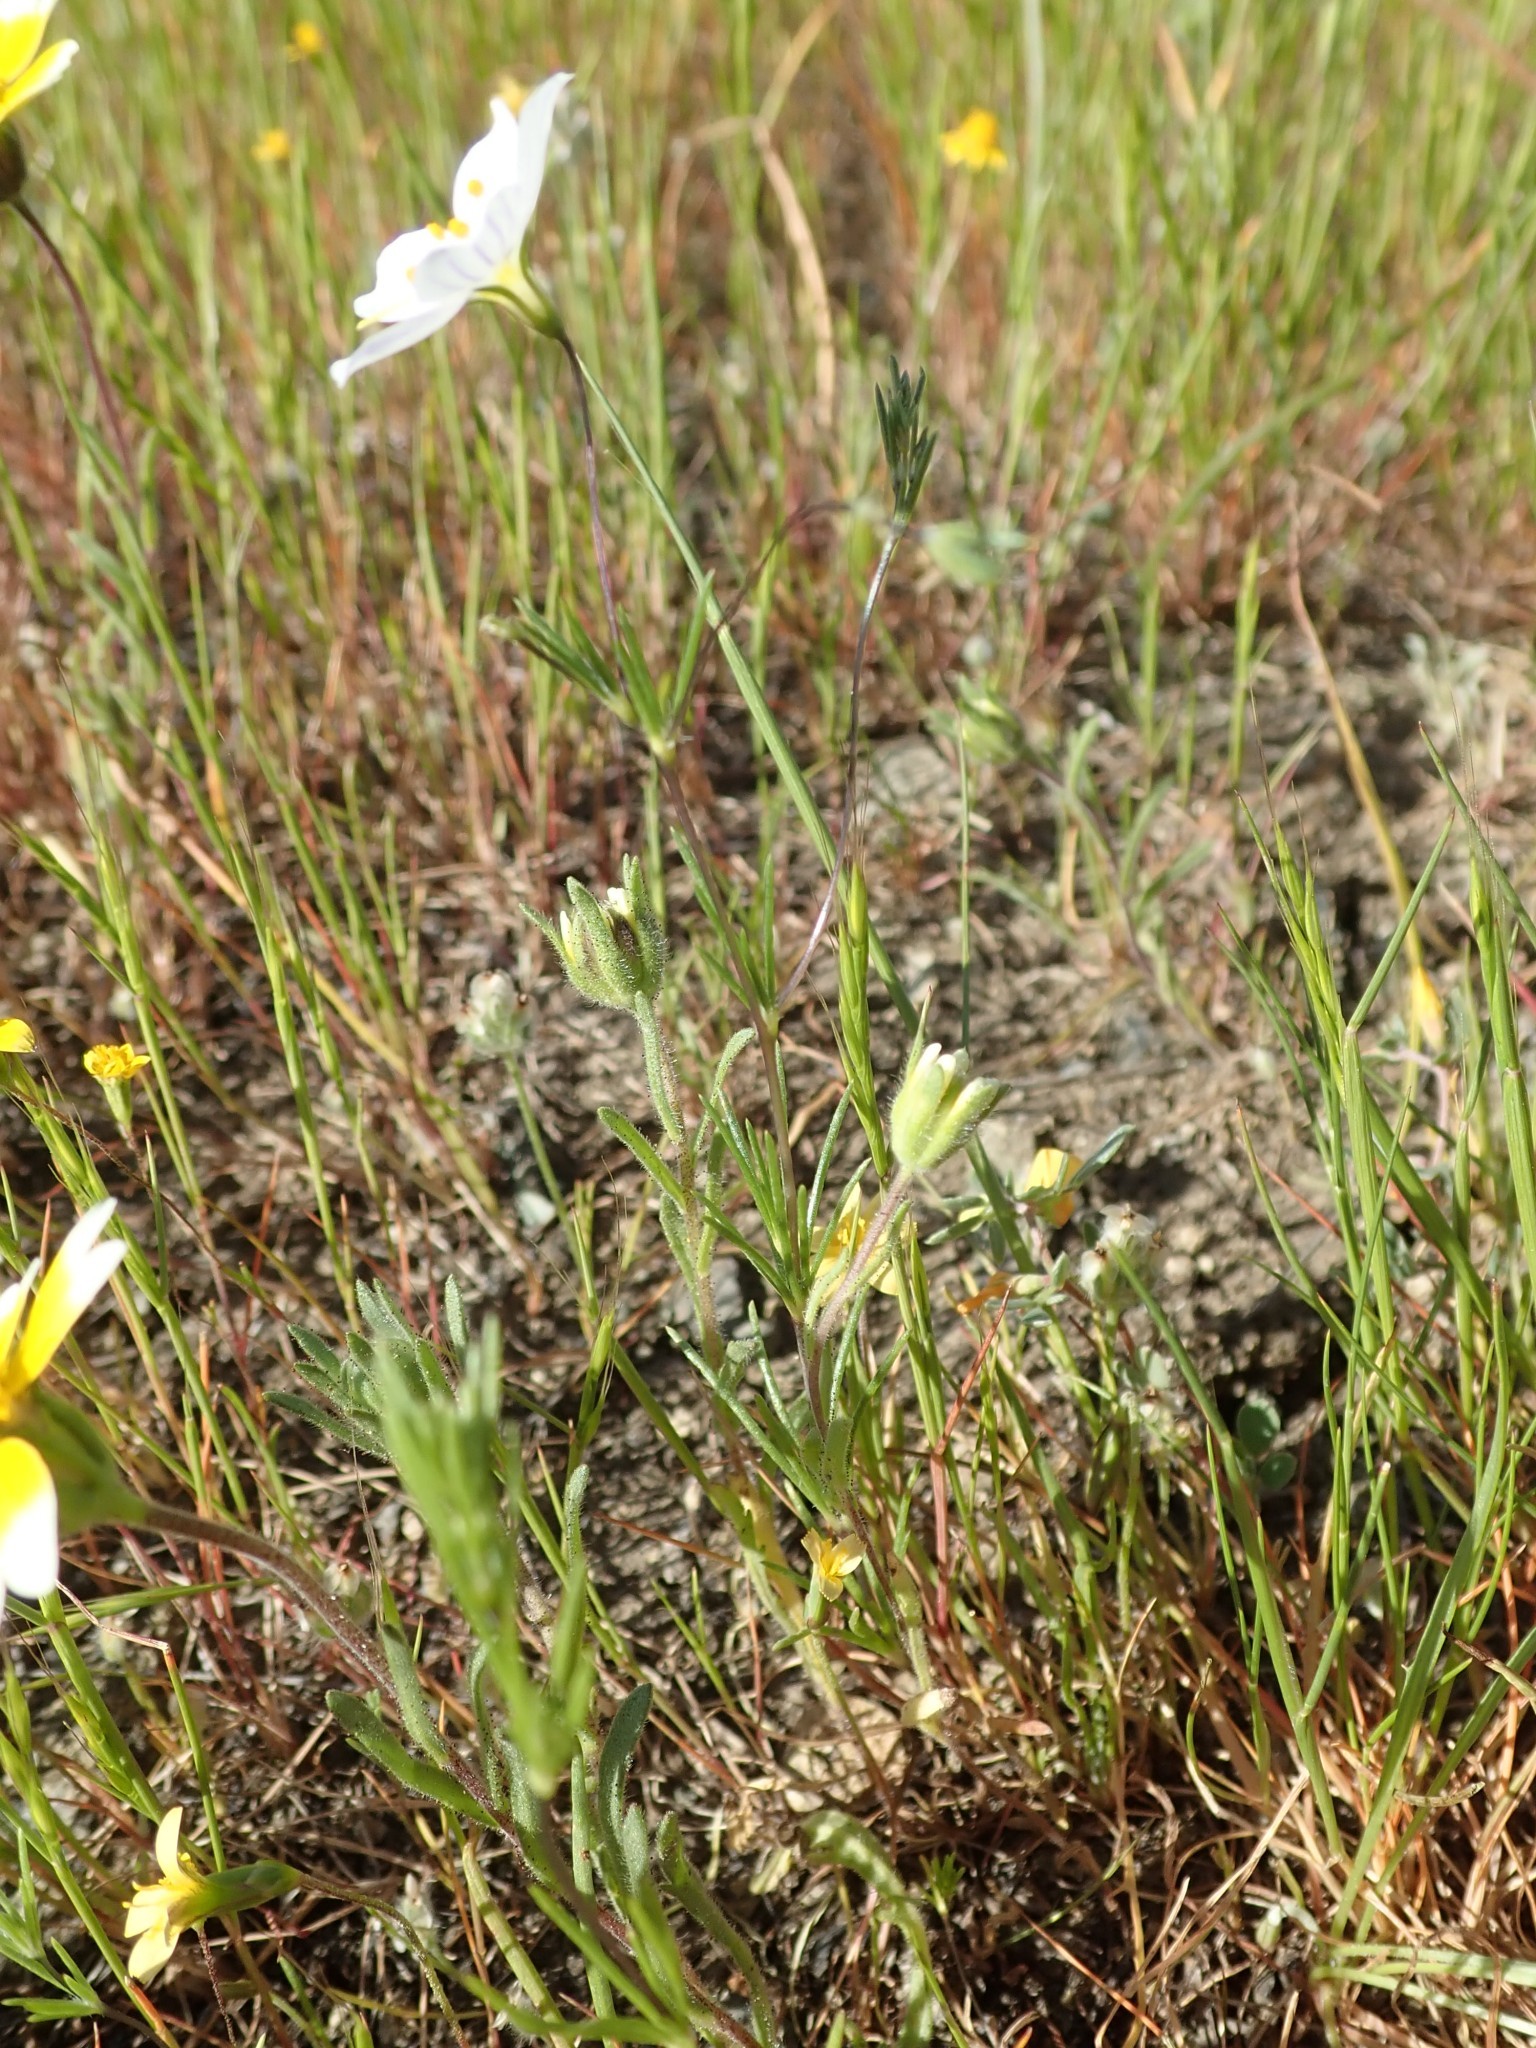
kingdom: Plantae
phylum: Tracheophyta
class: Magnoliopsida
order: Ericales
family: Polemoniaceae
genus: Leptosiphon
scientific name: Leptosiphon liniflorus
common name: Narrowflower flaxflower
